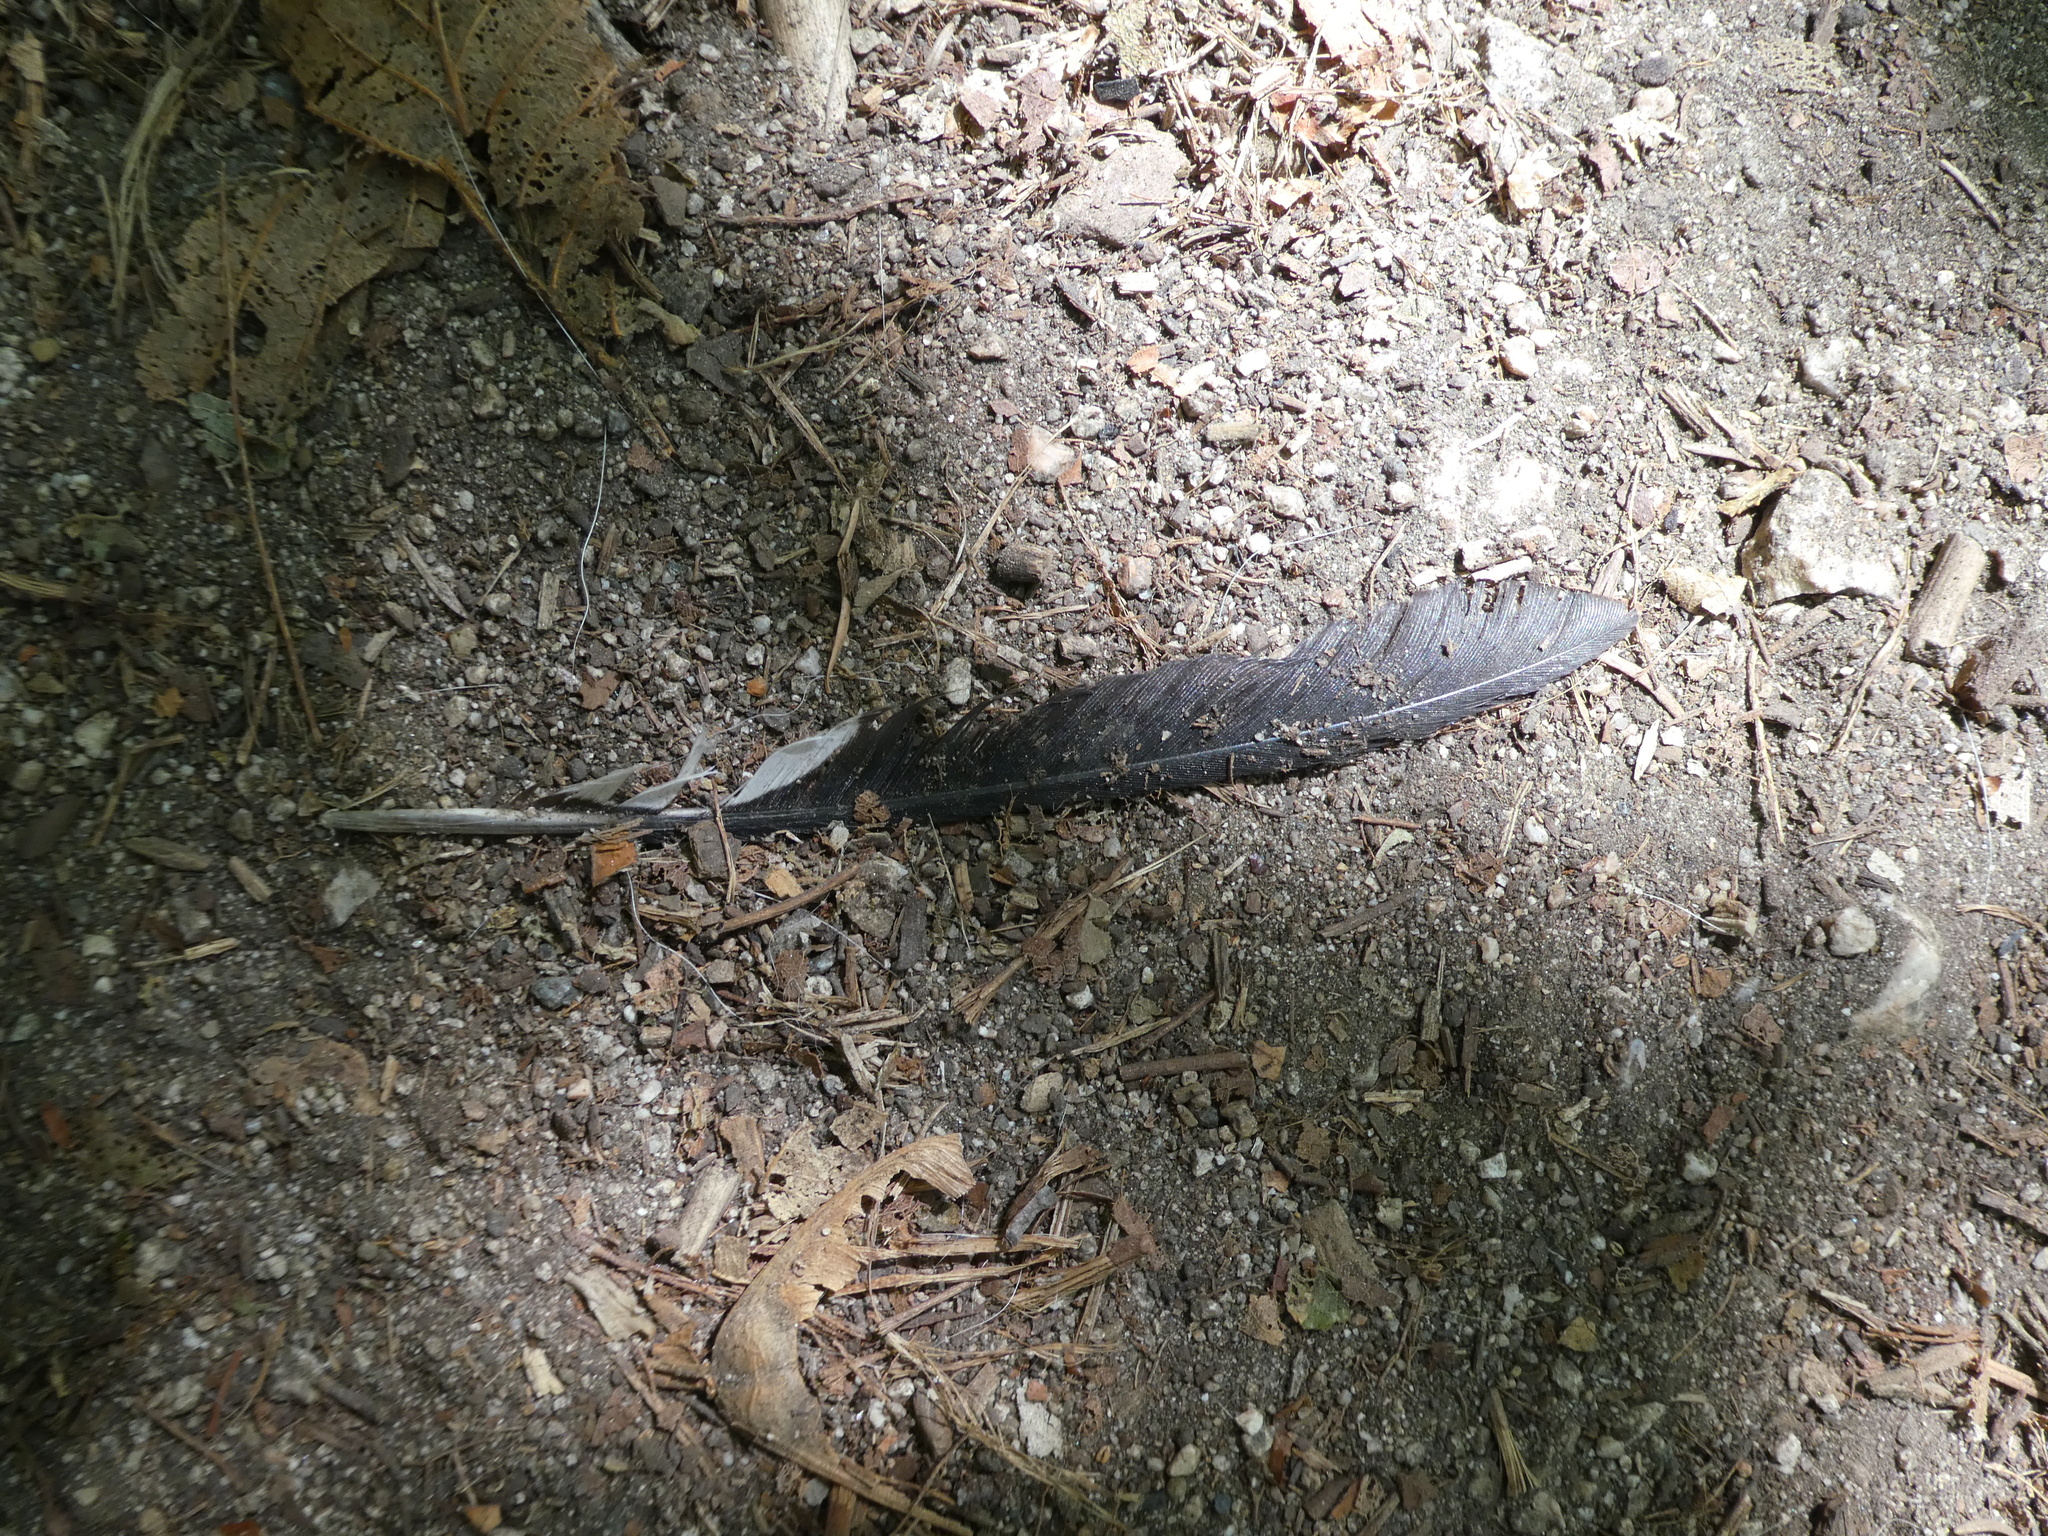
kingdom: Animalia
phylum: Chordata
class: Aves
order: Piciformes
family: Picidae
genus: Melanerpes
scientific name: Melanerpes formicivorus
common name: Acorn woodpecker
